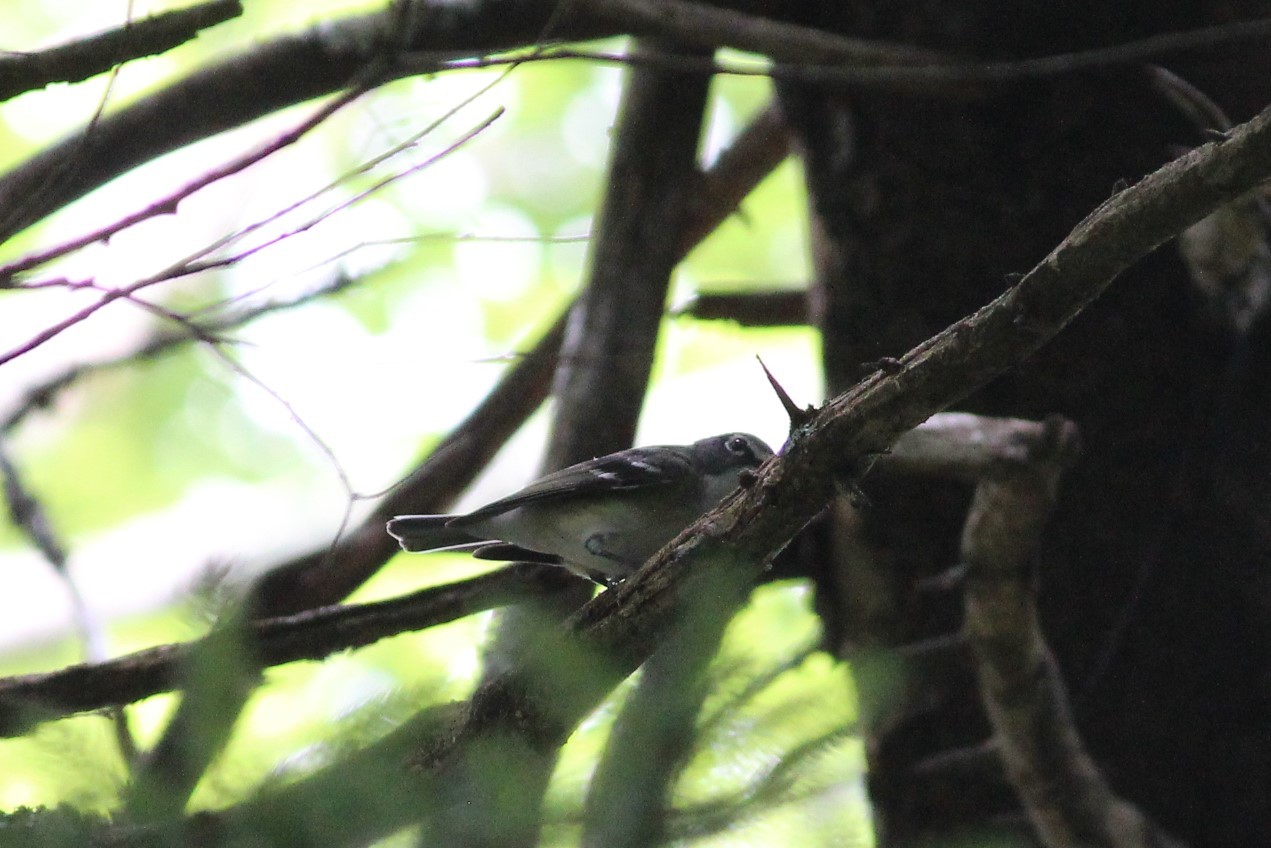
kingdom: Animalia
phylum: Chordata
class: Aves
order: Passeriformes
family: Vireonidae
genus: Vireo
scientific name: Vireo solitarius
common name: Blue-headed vireo
